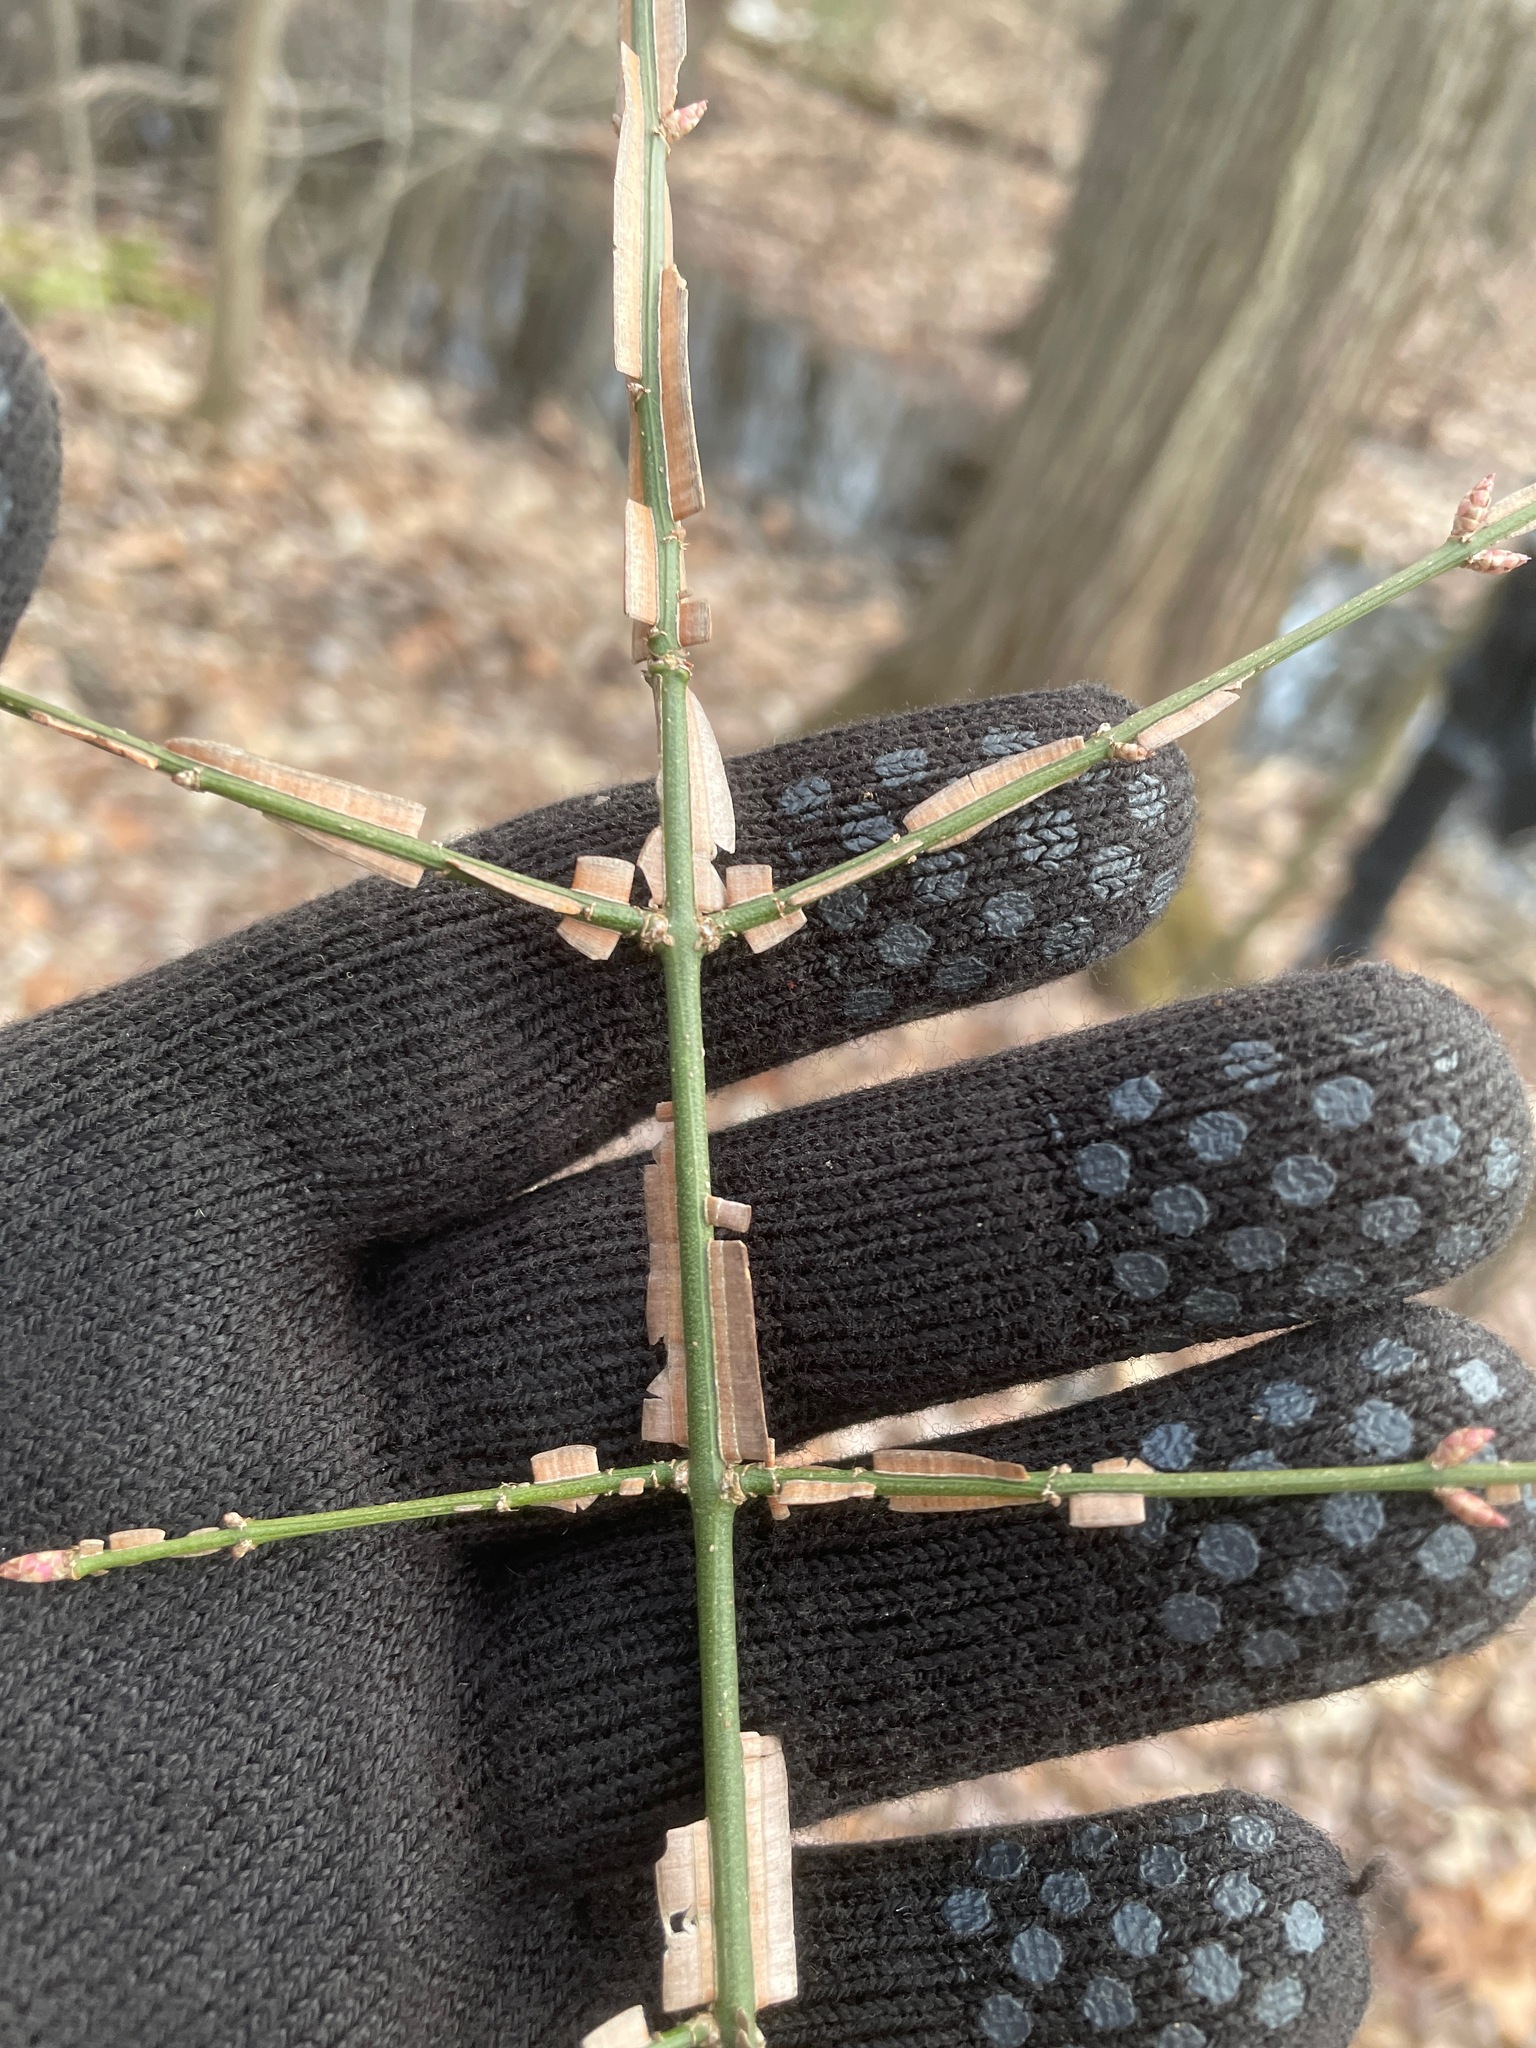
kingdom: Plantae
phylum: Tracheophyta
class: Magnoliopsida
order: Celastrales
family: Celastraceae
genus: Euonymus
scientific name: Euonymus alatus
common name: Winged euonymus
